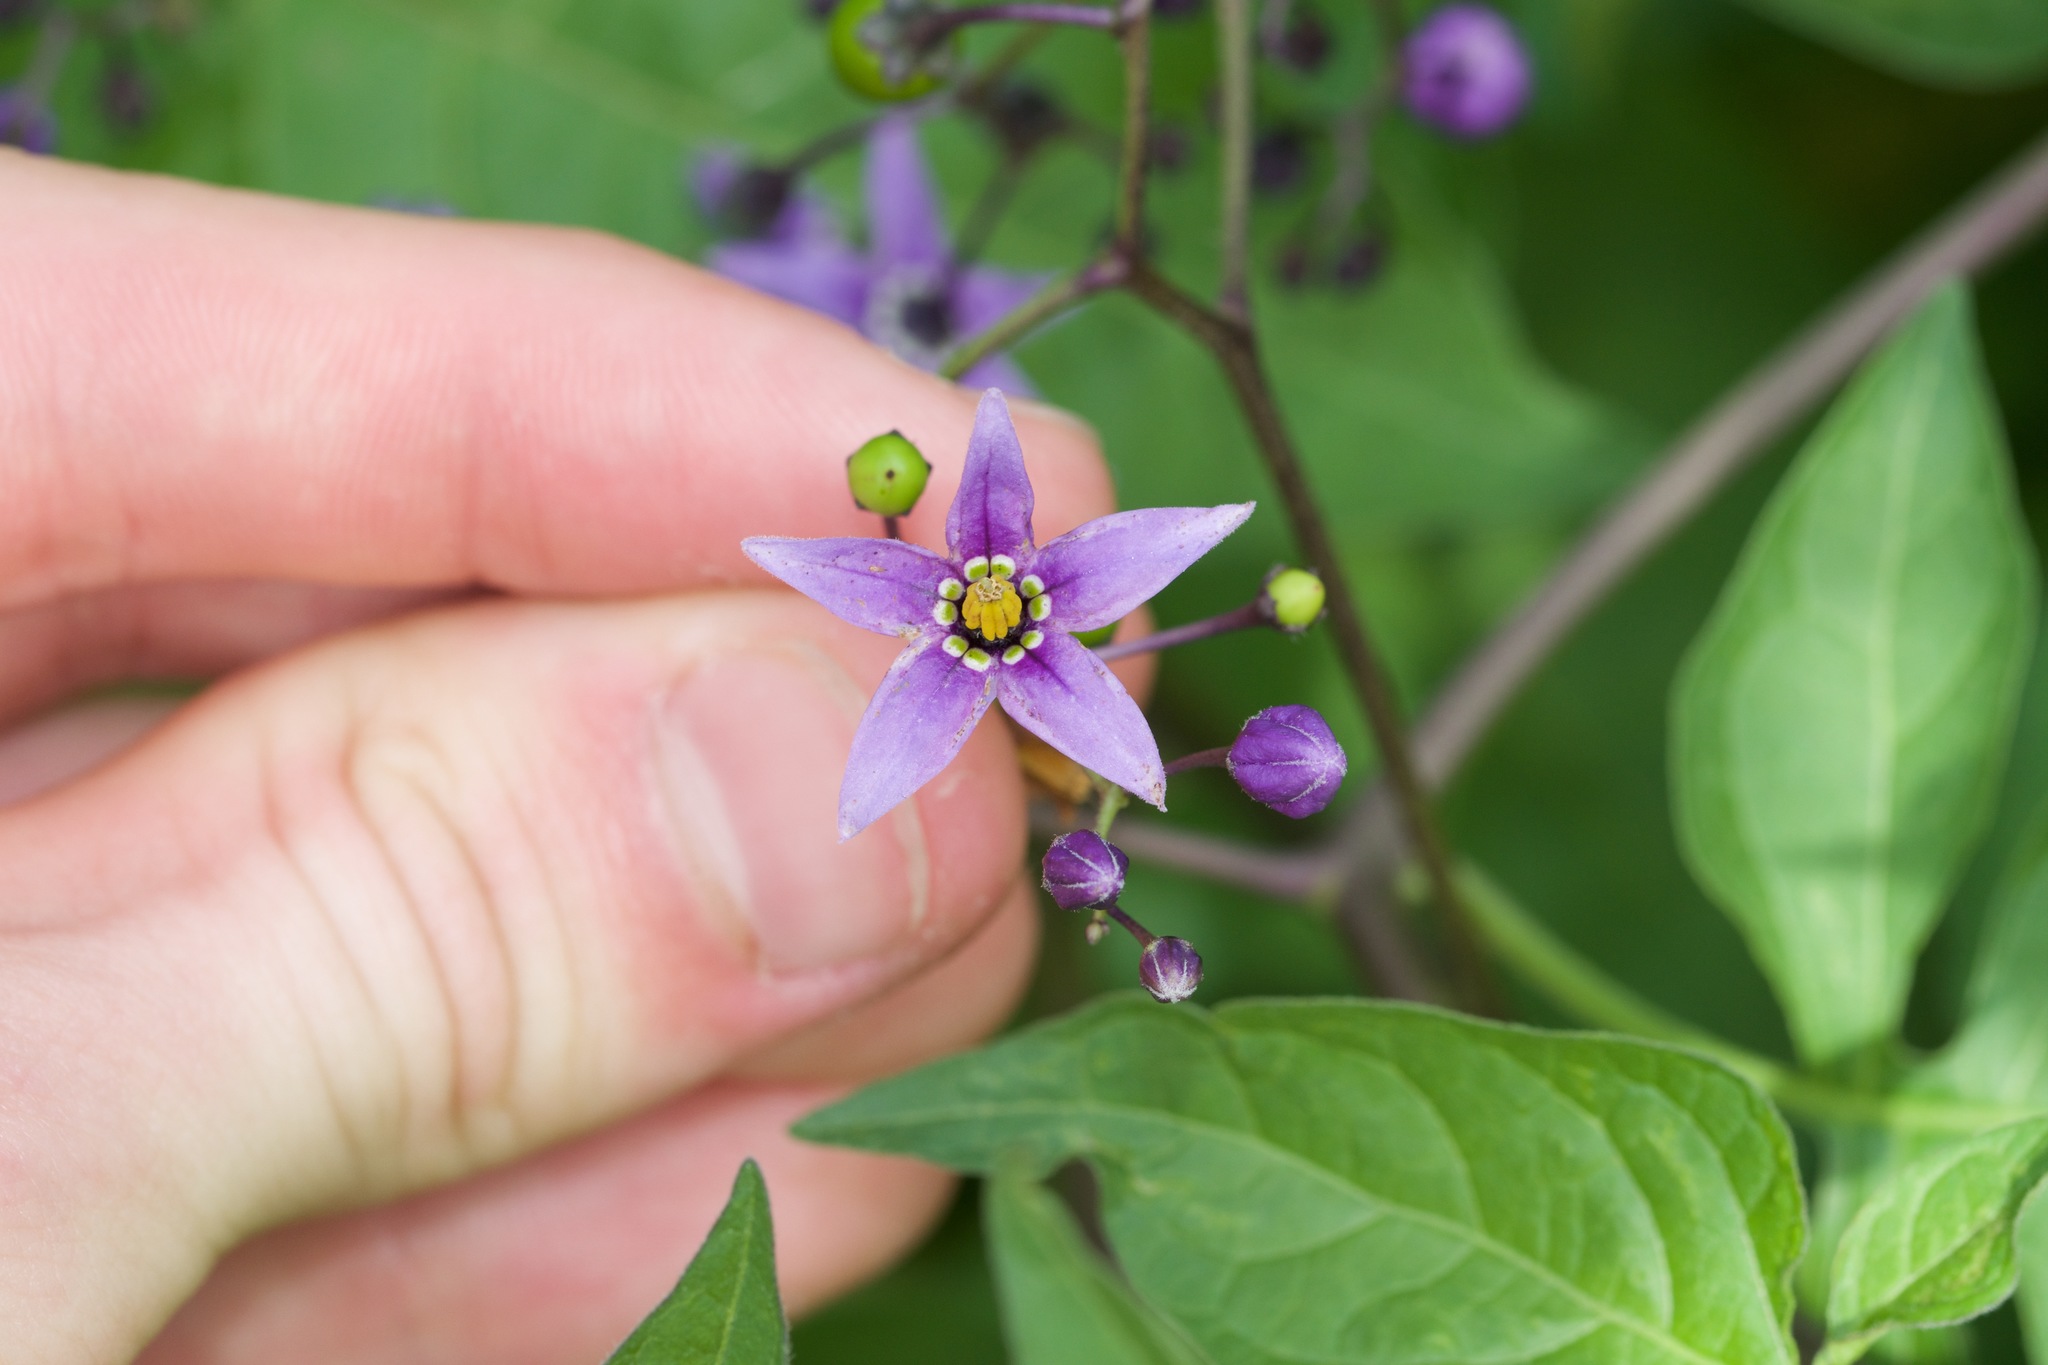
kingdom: Plantae
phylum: Tracheophyta
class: Magnoliopsida
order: Solanales
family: Solanaceae
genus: Solanum
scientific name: Solanum dulcamara
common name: Climbing nightshade
